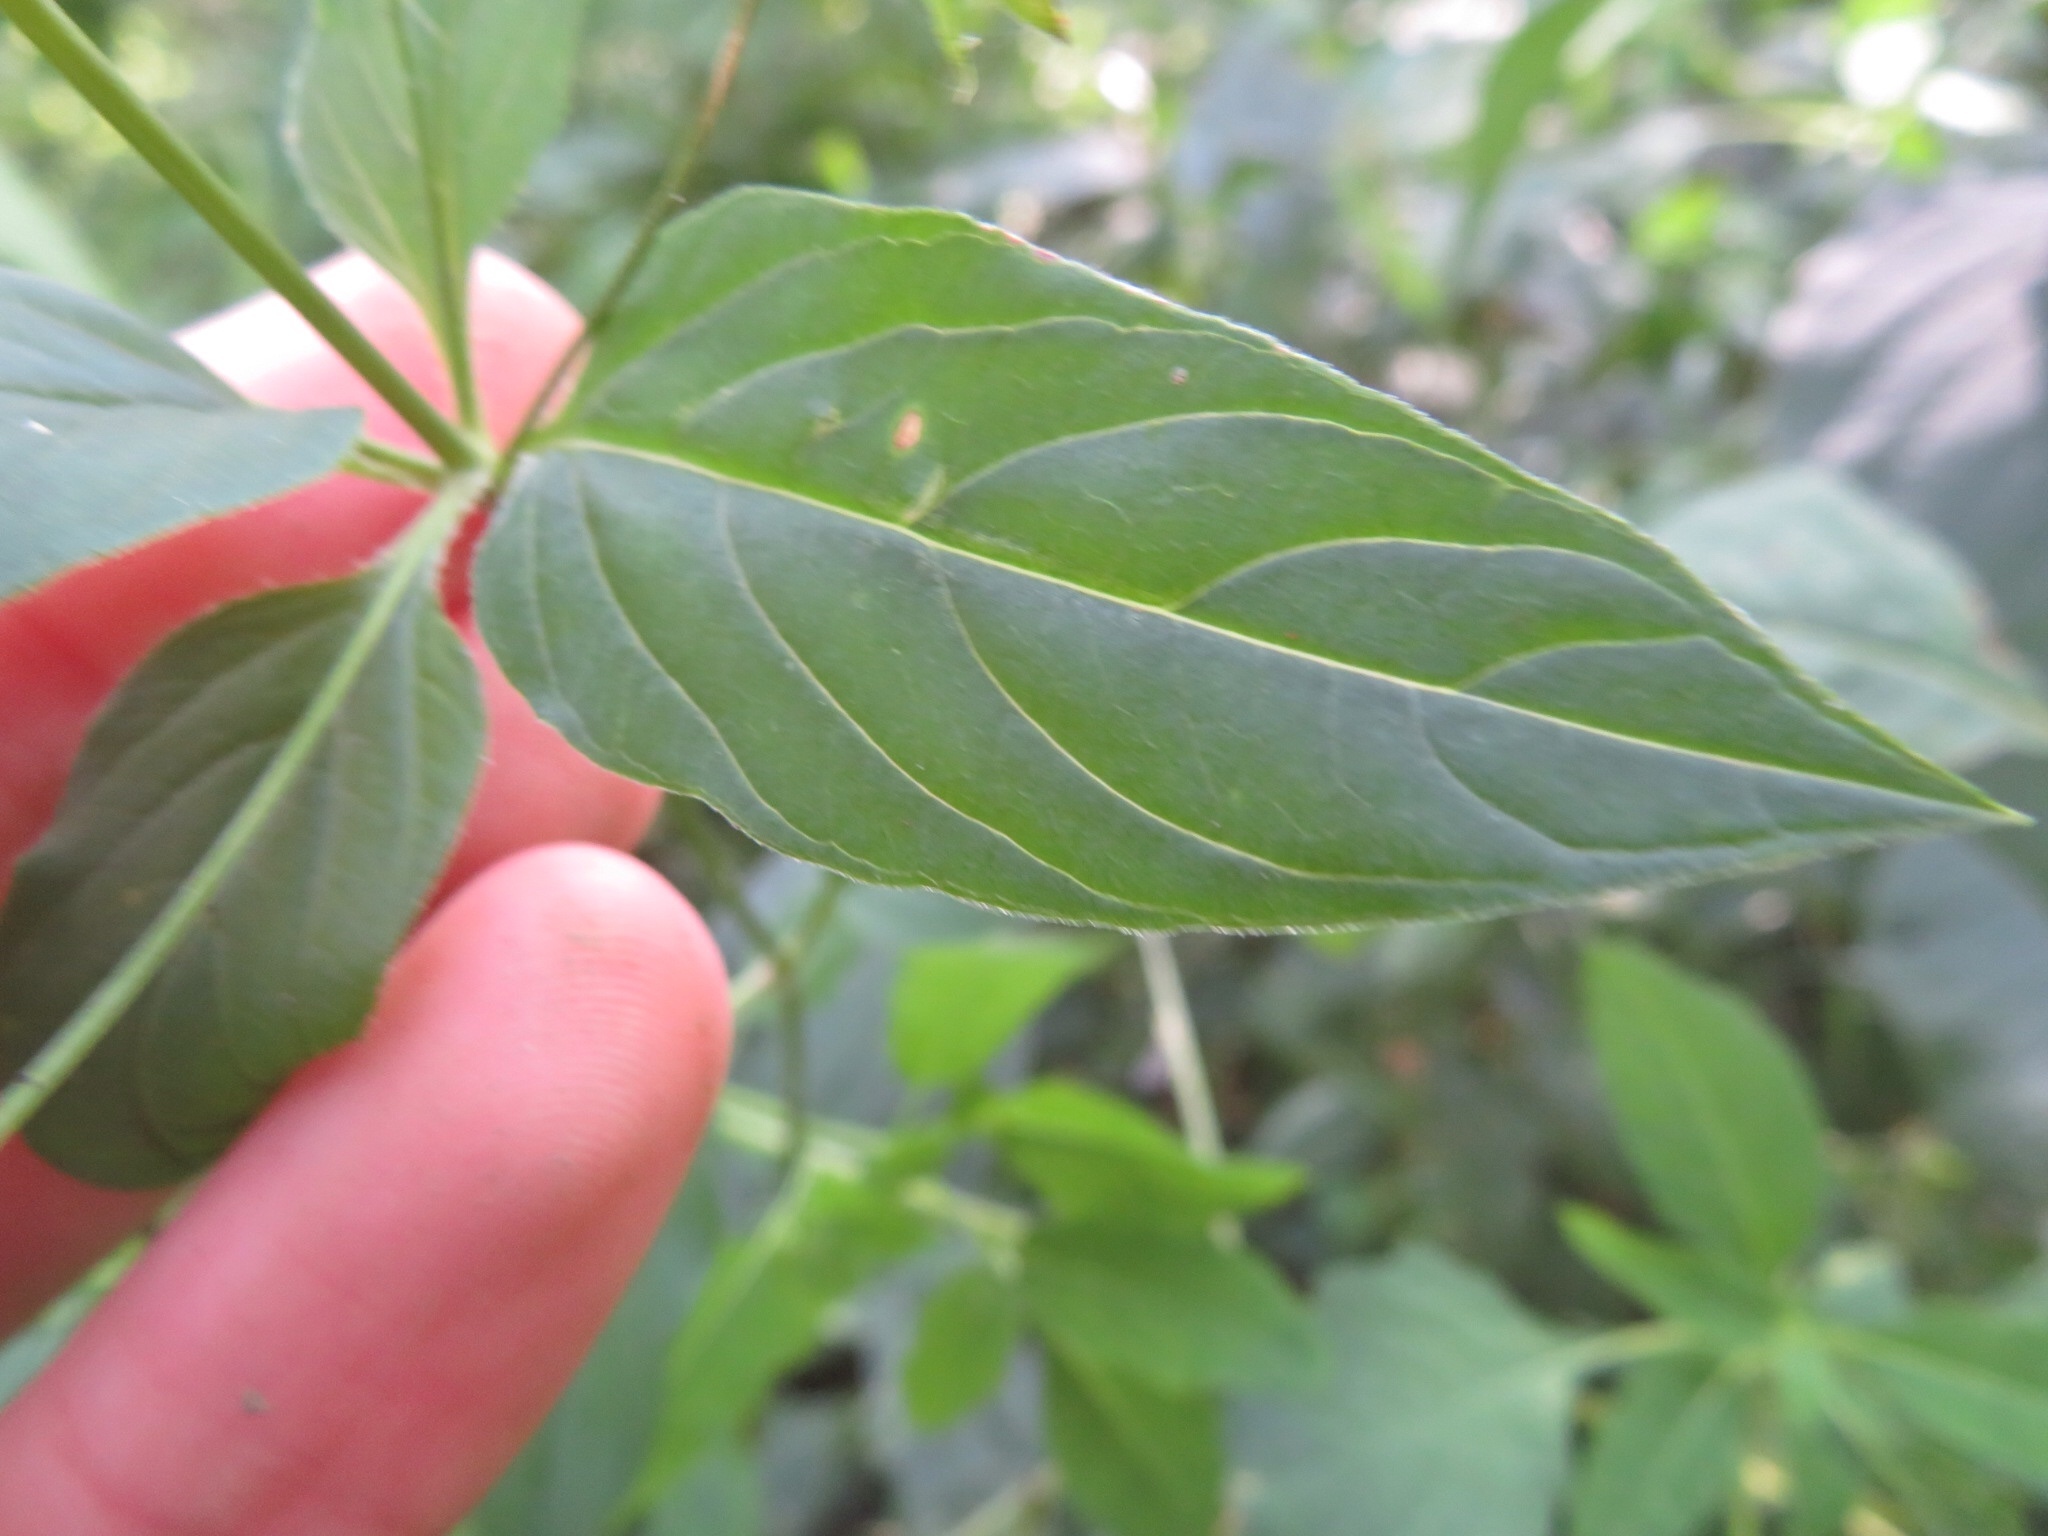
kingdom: Plantae
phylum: Tracheophyta
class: Magnoliopsida
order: Ericales
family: Primulaceae
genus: Lysimachia
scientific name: Lysimachia ciliata
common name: Fringed loosestrife
